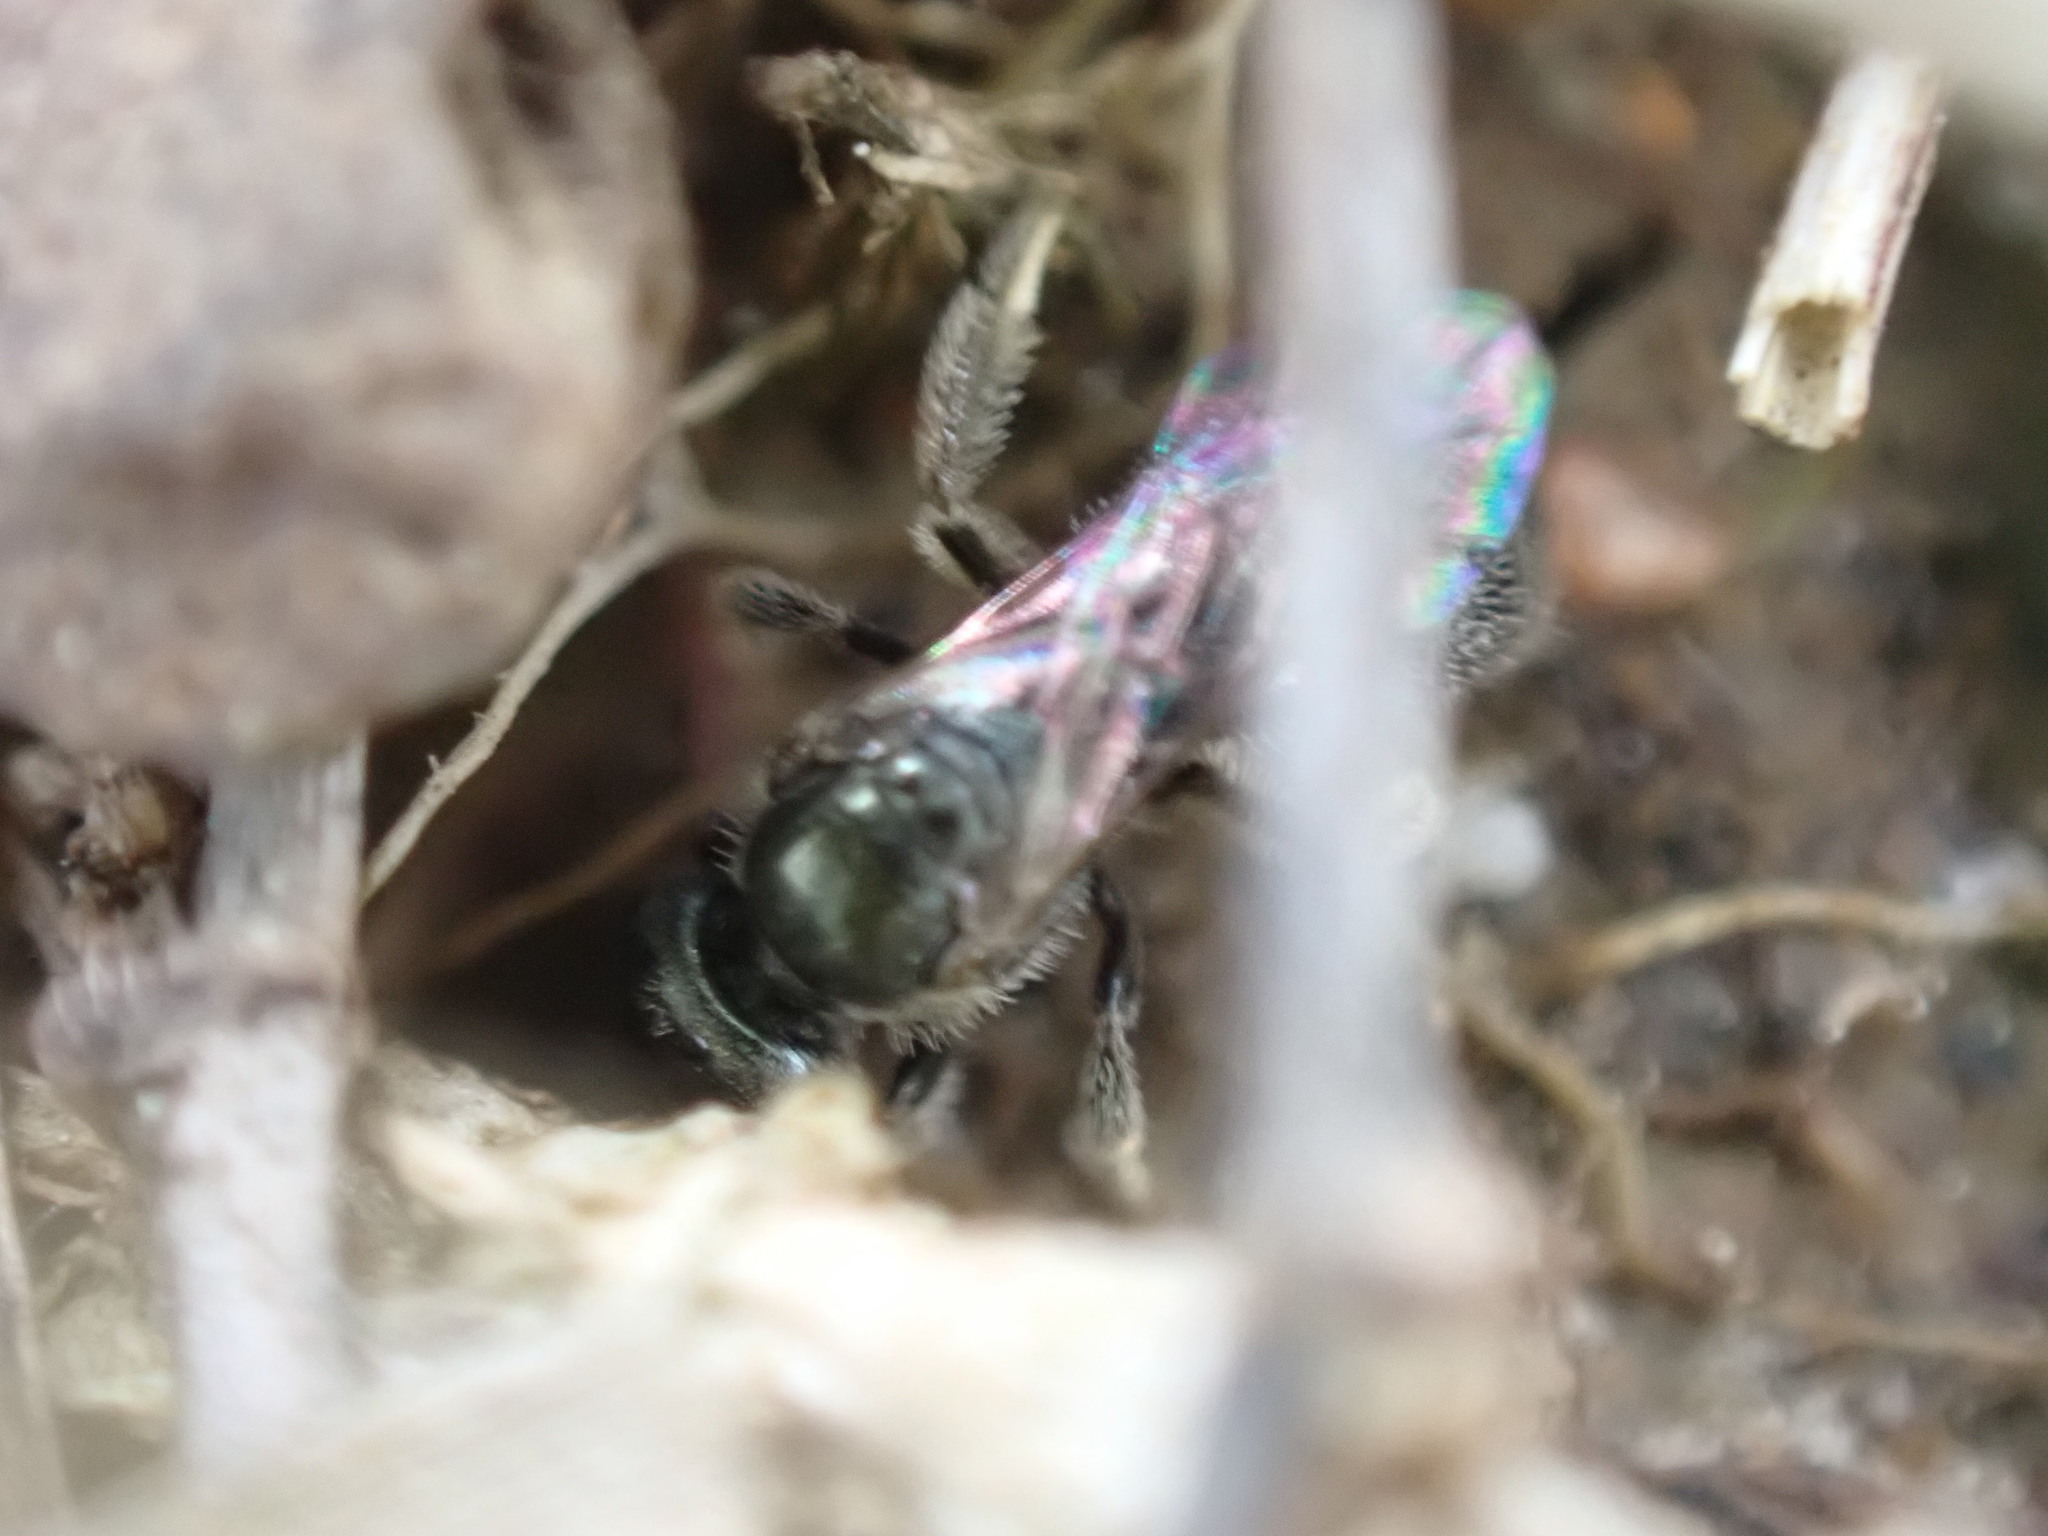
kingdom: Animalia
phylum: Arthropoda
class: Insecta
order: Hymenoptera
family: Halictidae
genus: Lasioglossum
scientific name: Lasioglossum imitatum
